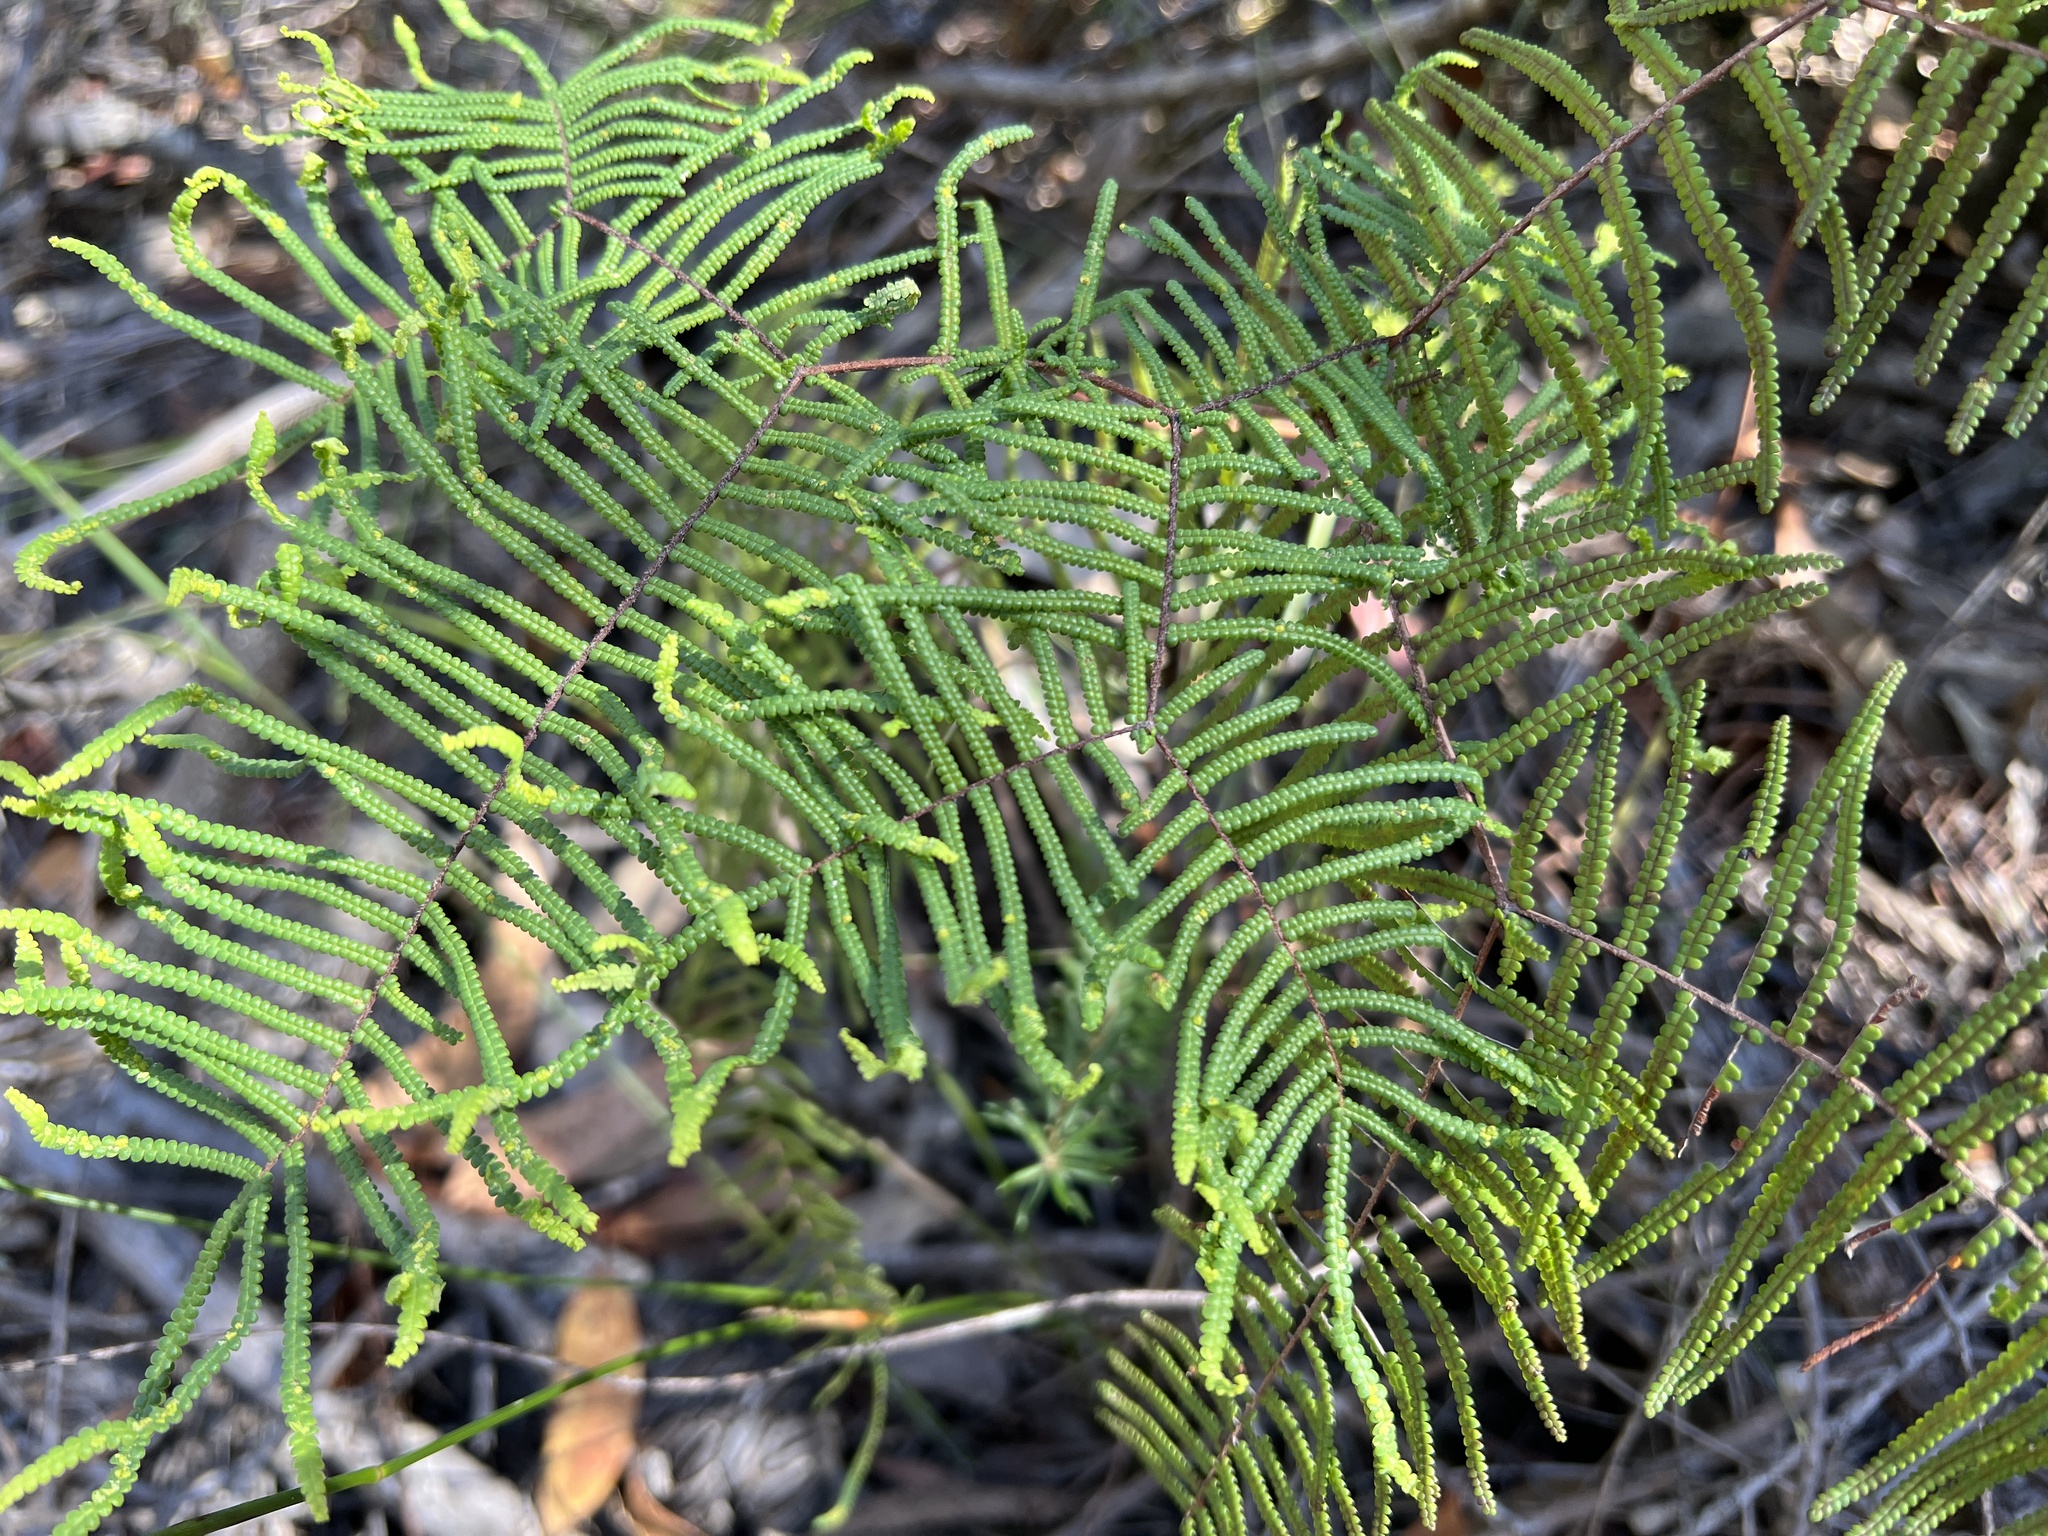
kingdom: Plantae
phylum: Tracheophyta
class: Polypodiopsida
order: Gleicheniales
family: Gleicheniaceae
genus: Gleichenia
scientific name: Gleichenia dicarpa
